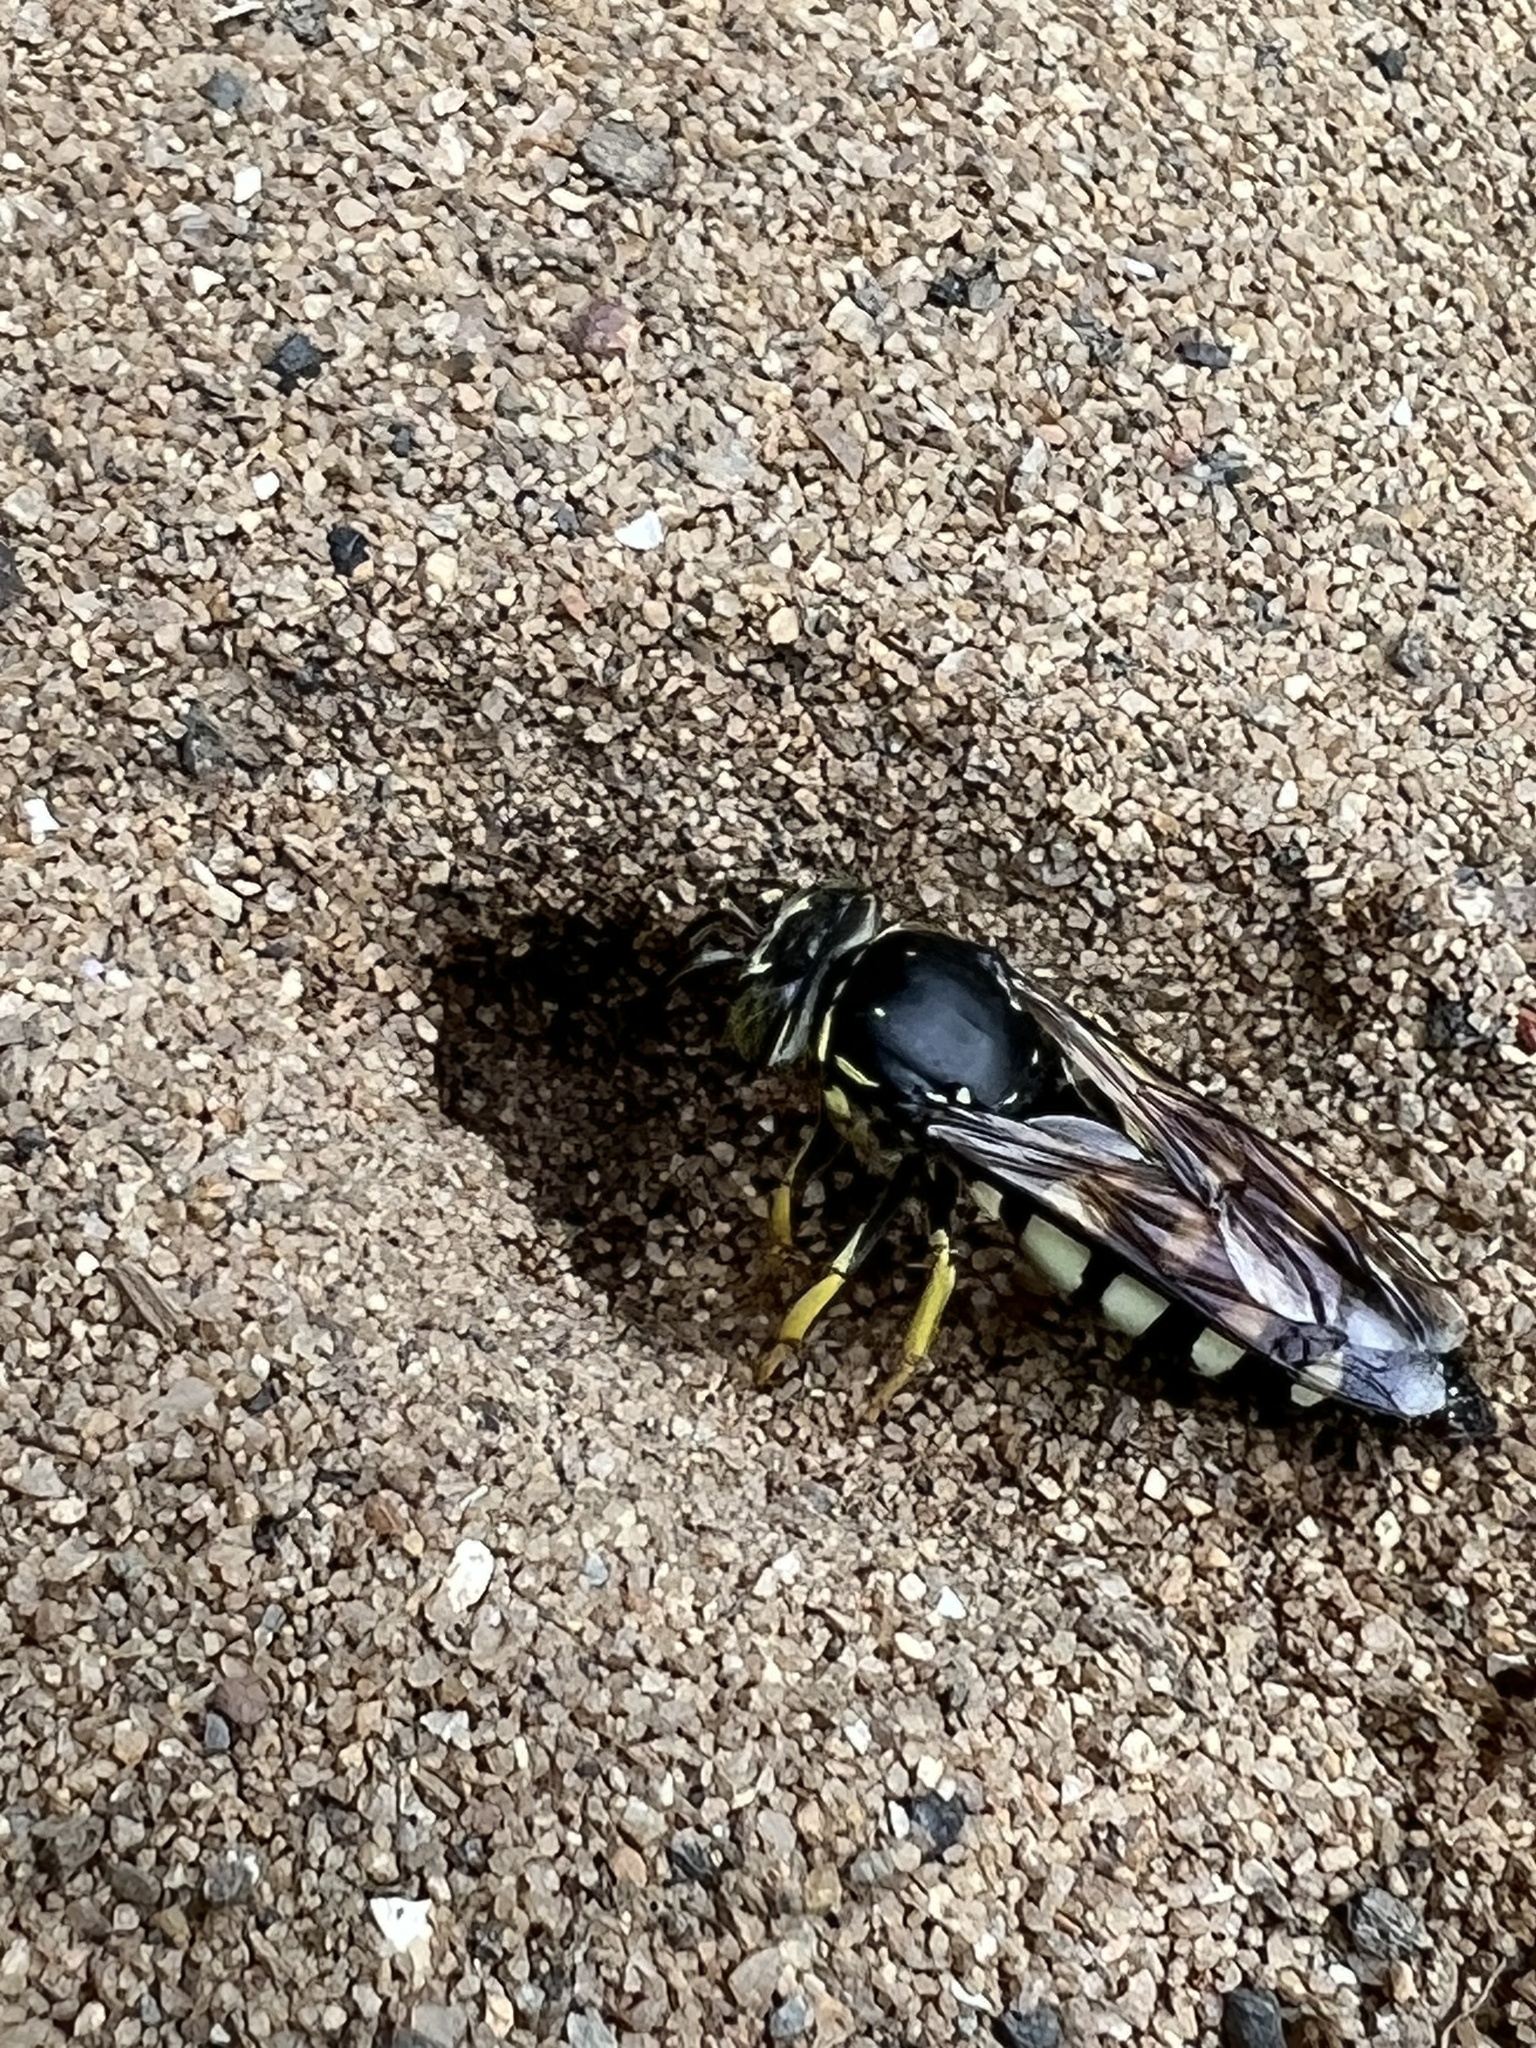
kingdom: Animalia
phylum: Arthropoda
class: Insecta
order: Hymenoptera
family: Crabronidae
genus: Bicyrtes
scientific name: Bicyrtes quadrifasciatus
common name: Four-banded stink bug hunter wasp
